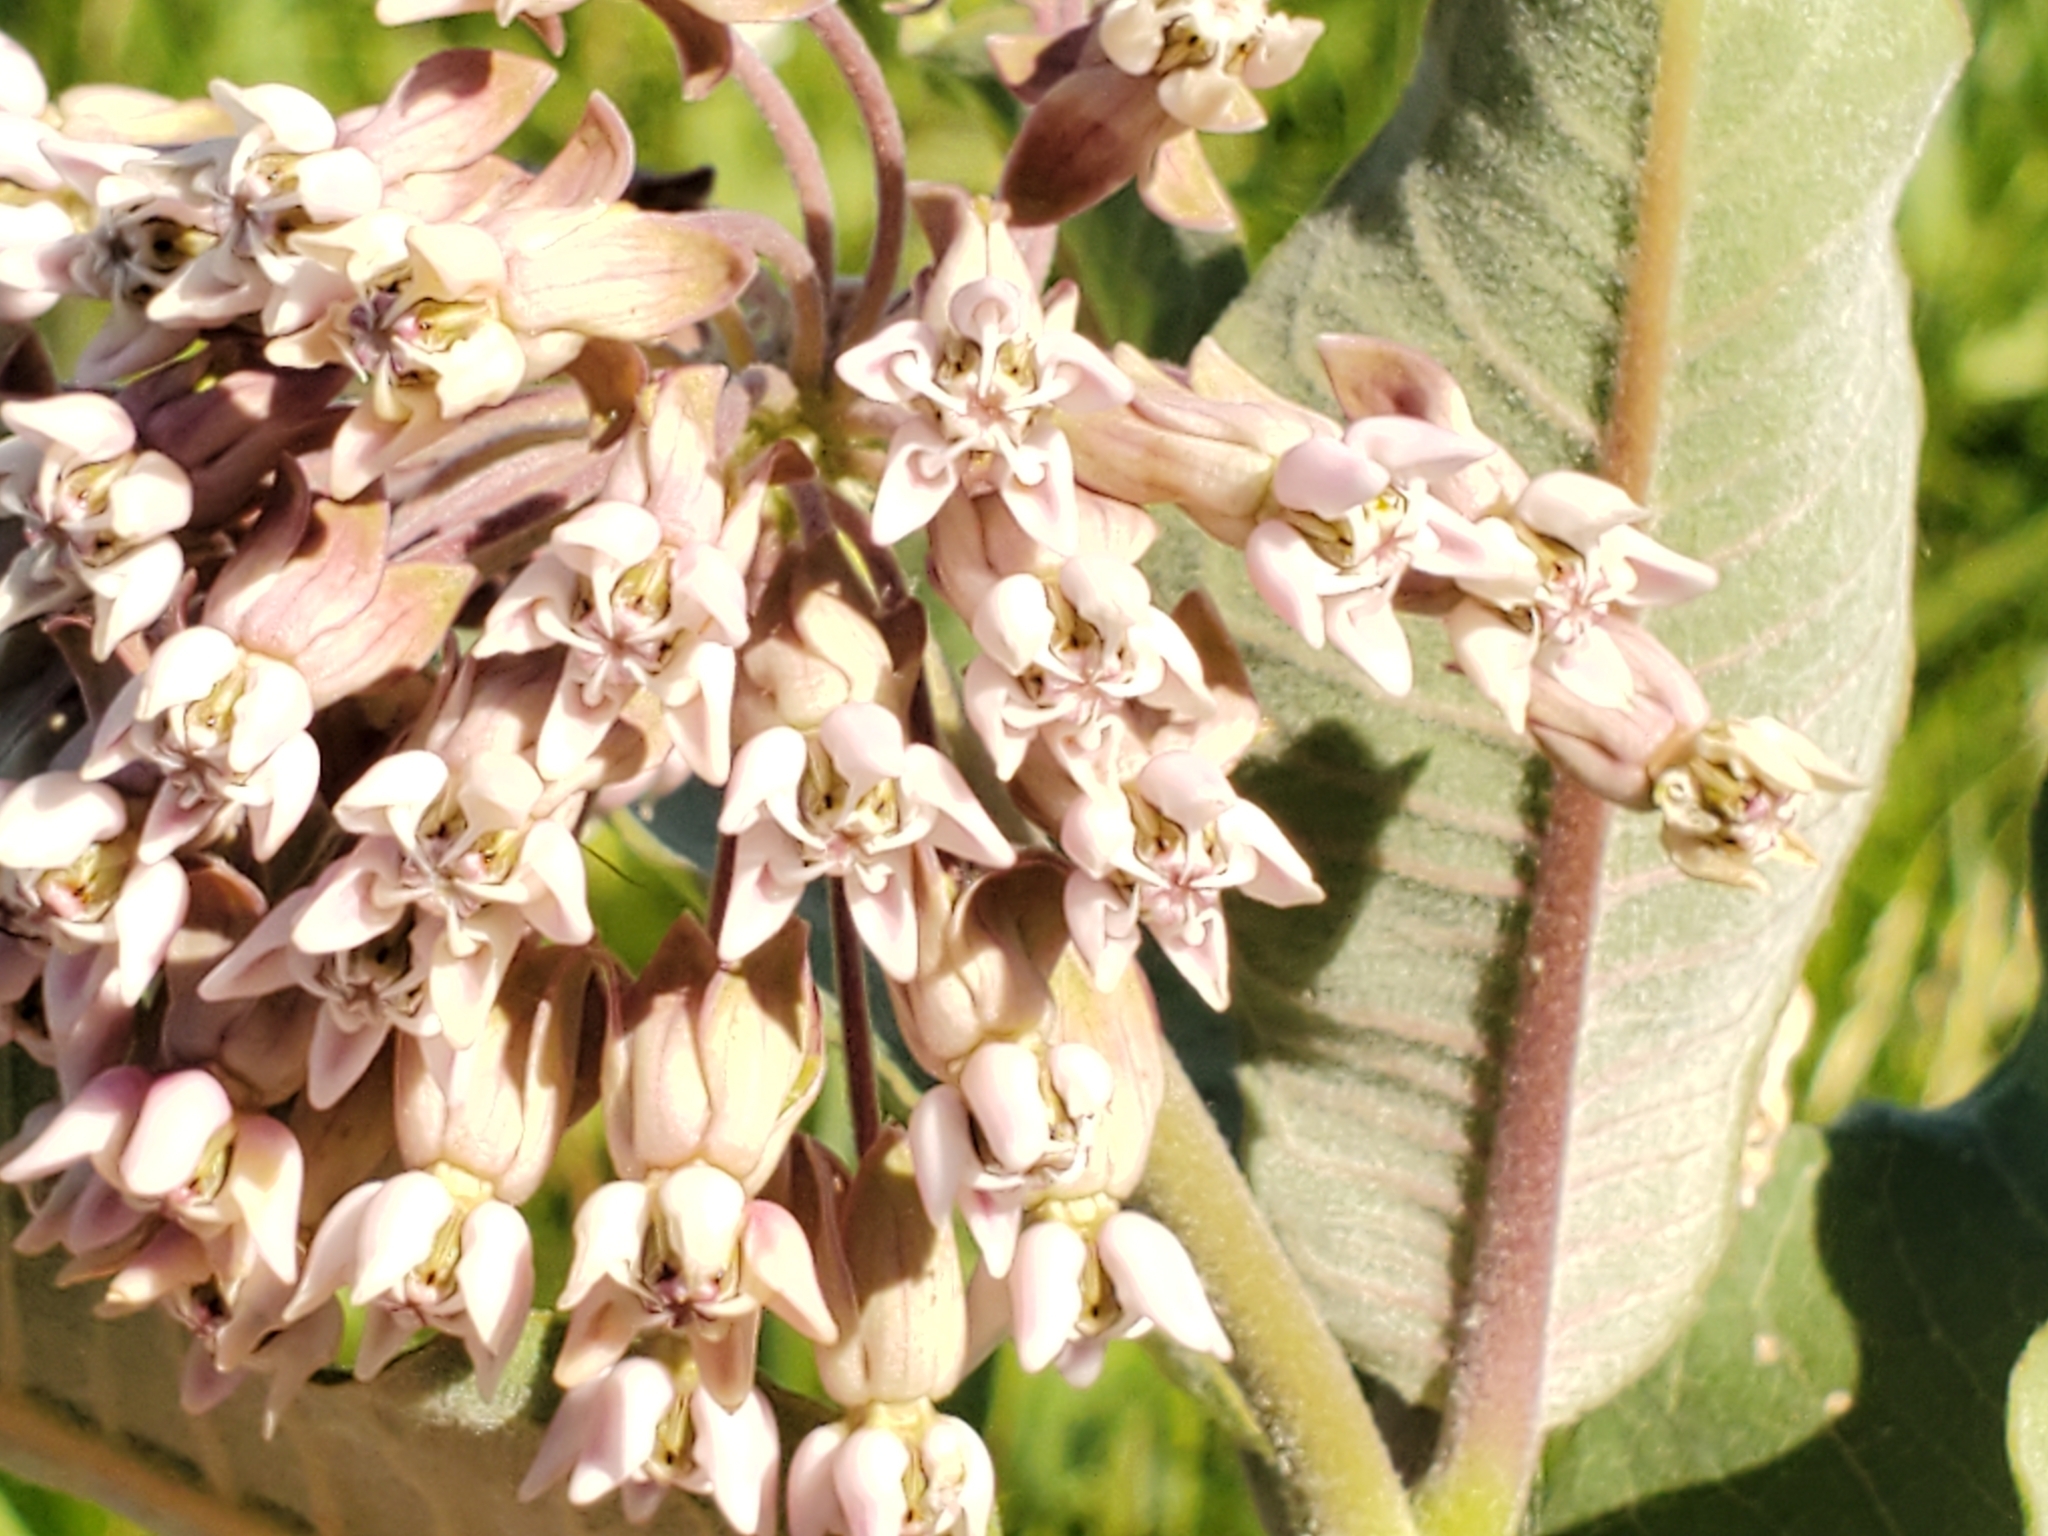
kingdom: Plantae
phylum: Tracheophyta
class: Magnoliopsida
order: Gentianales
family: Apocynaceae
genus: Asclepias
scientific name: Asclepias syriaca
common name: Common milkweed
